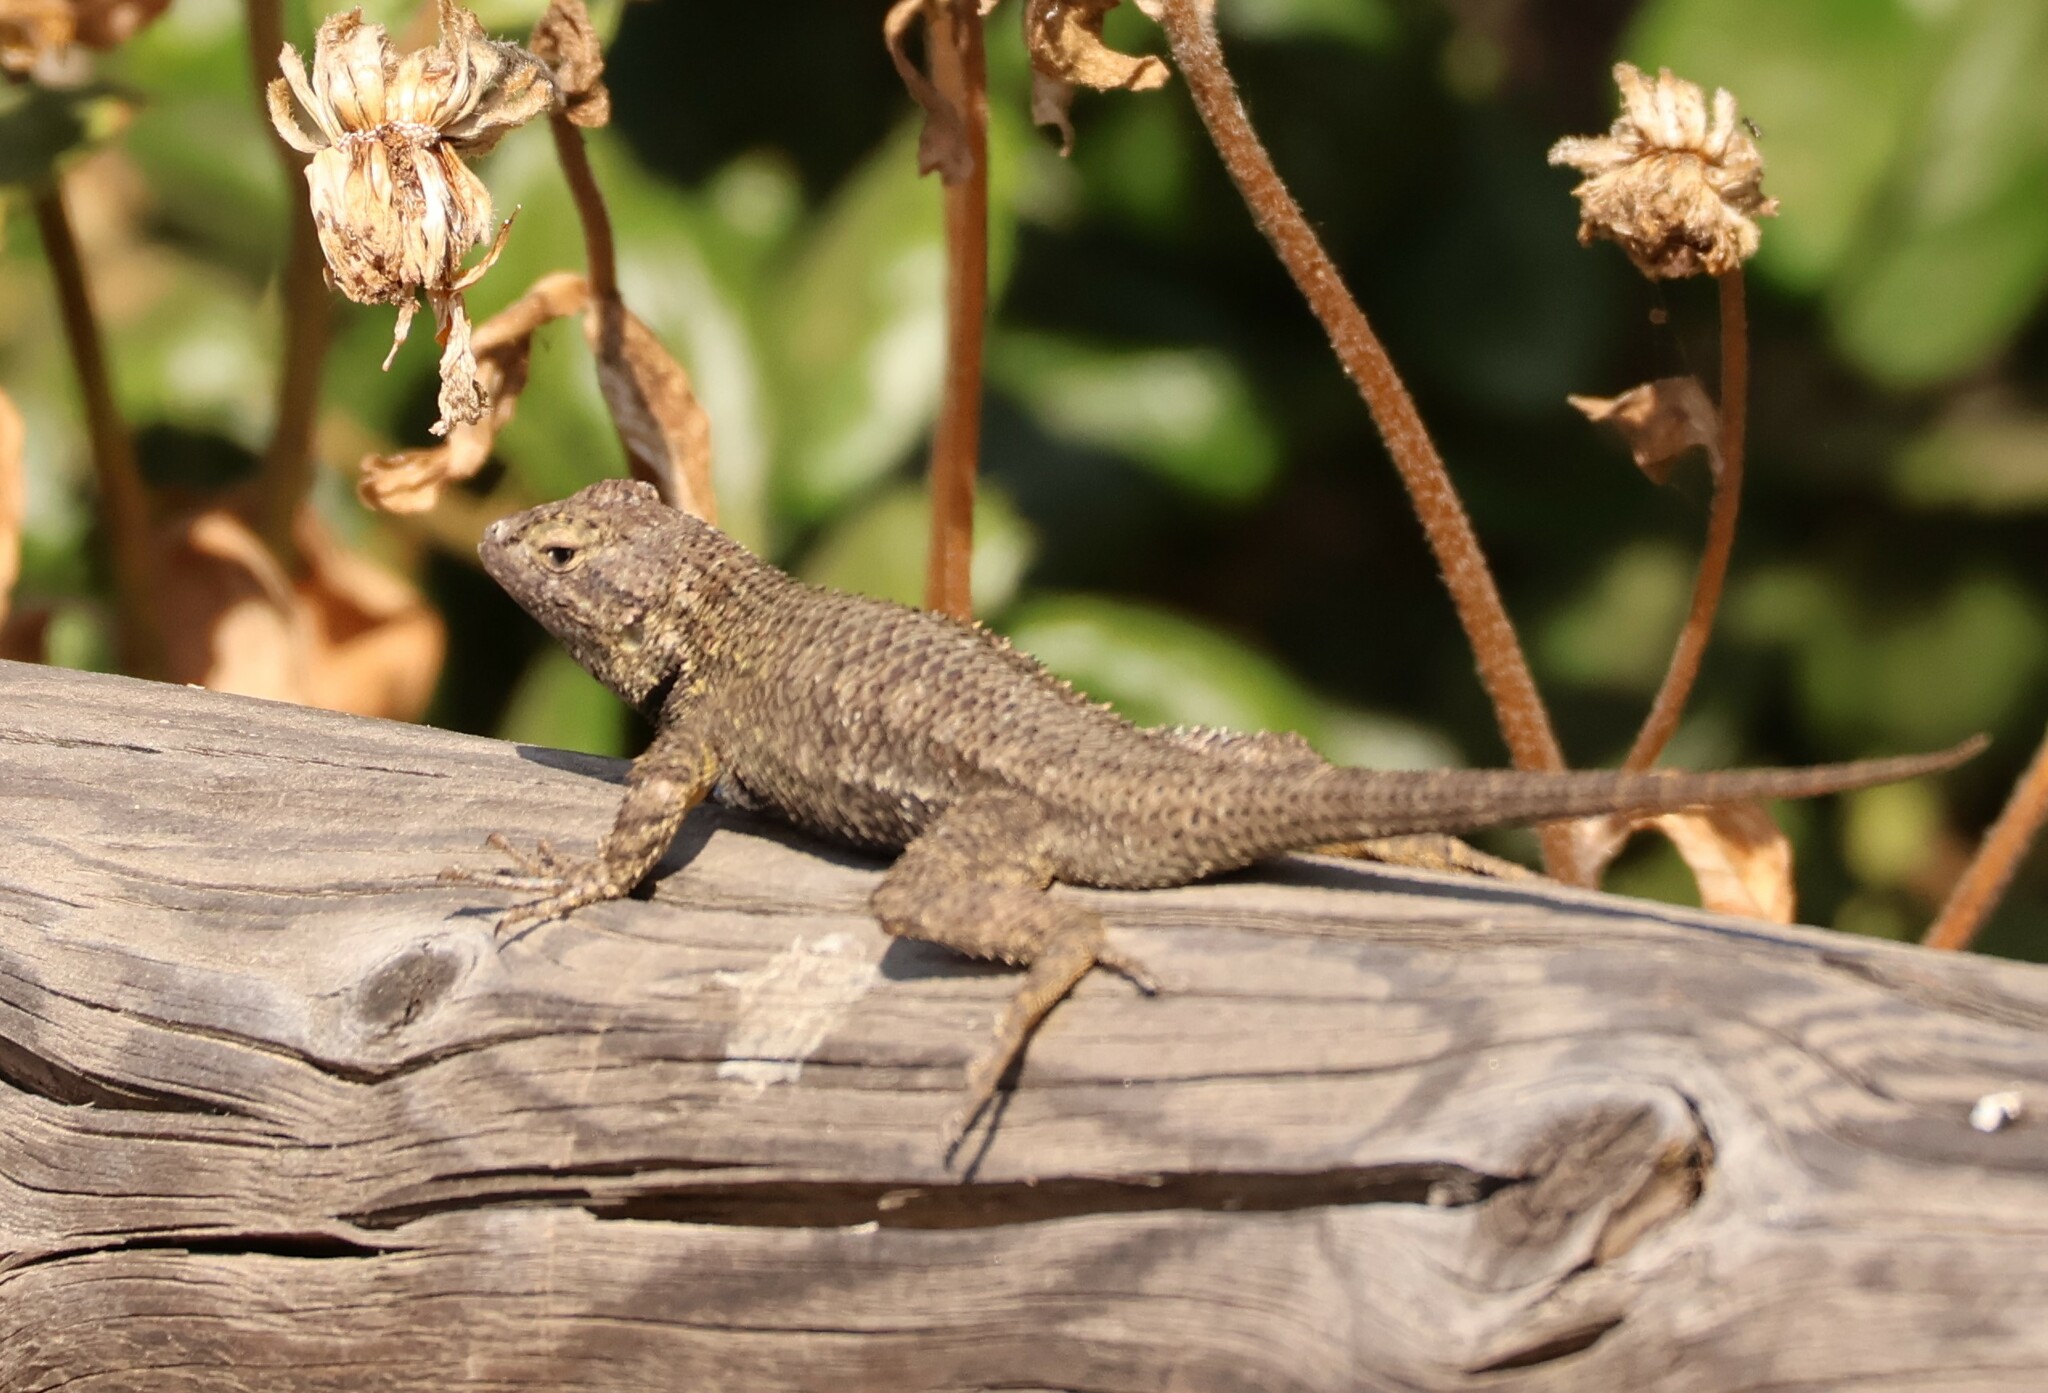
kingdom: Animalia
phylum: Chordata
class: Squamata
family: Phrynosomatidae
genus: Sceloporus
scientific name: Sceloporus occidentalis
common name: Western fence lizard
